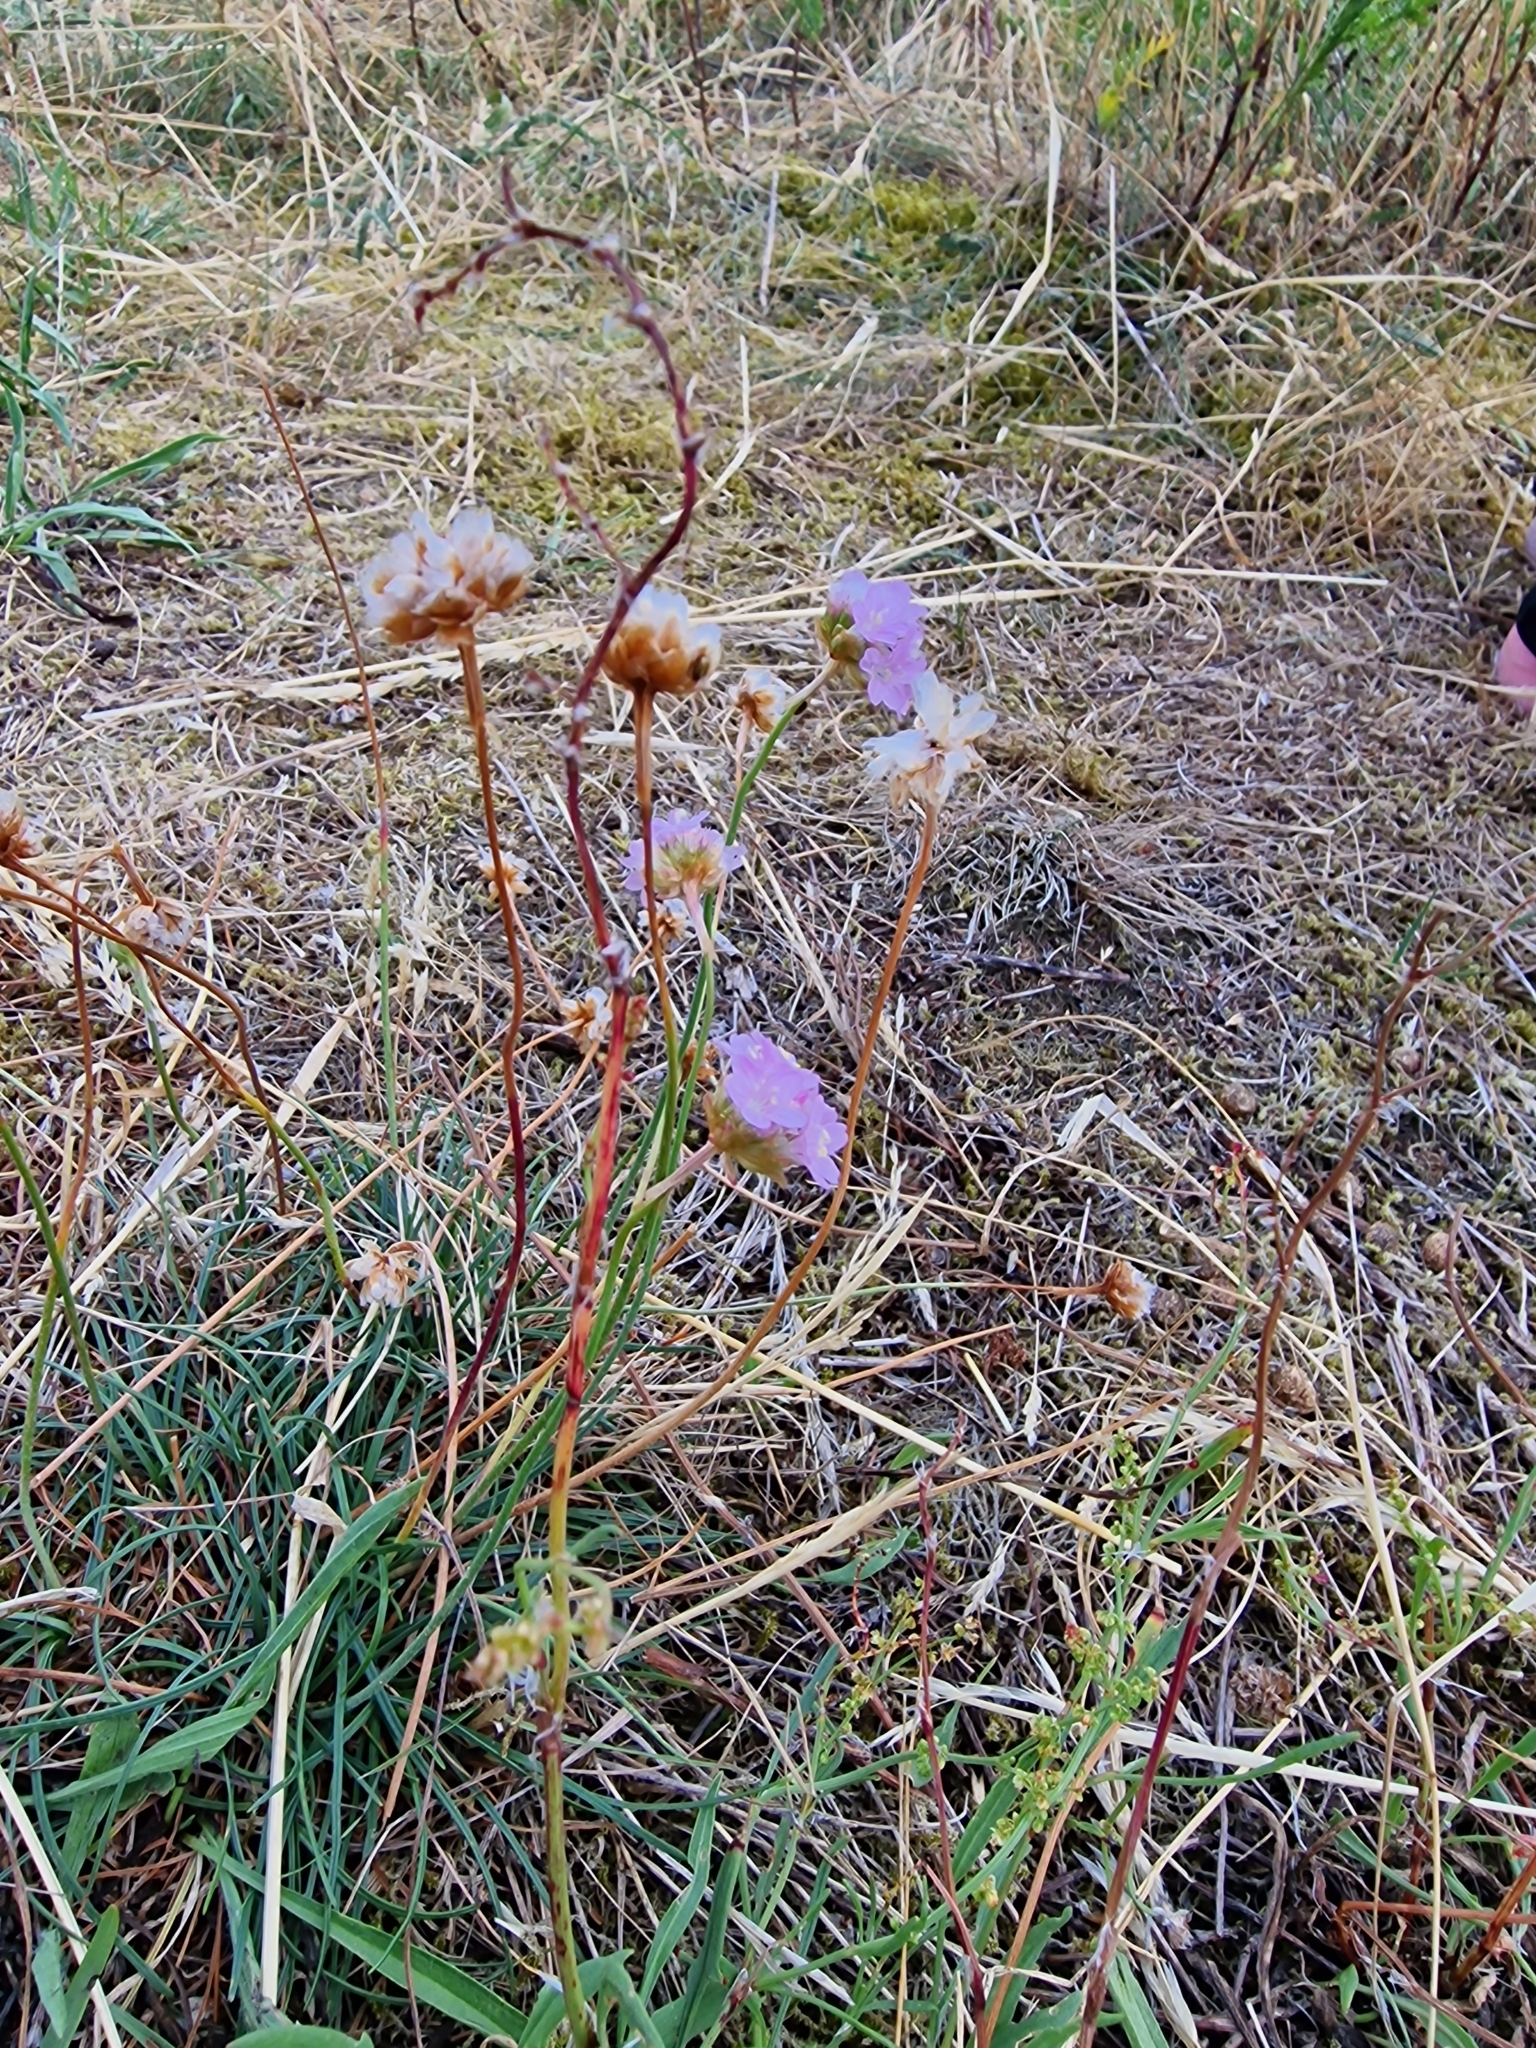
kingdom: Plantae
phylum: Tracheophyta
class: Magnoliopsida
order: Caryophyllales
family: Plumbaginaceae
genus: Armeria
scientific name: Armeria maritima
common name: Thrift
